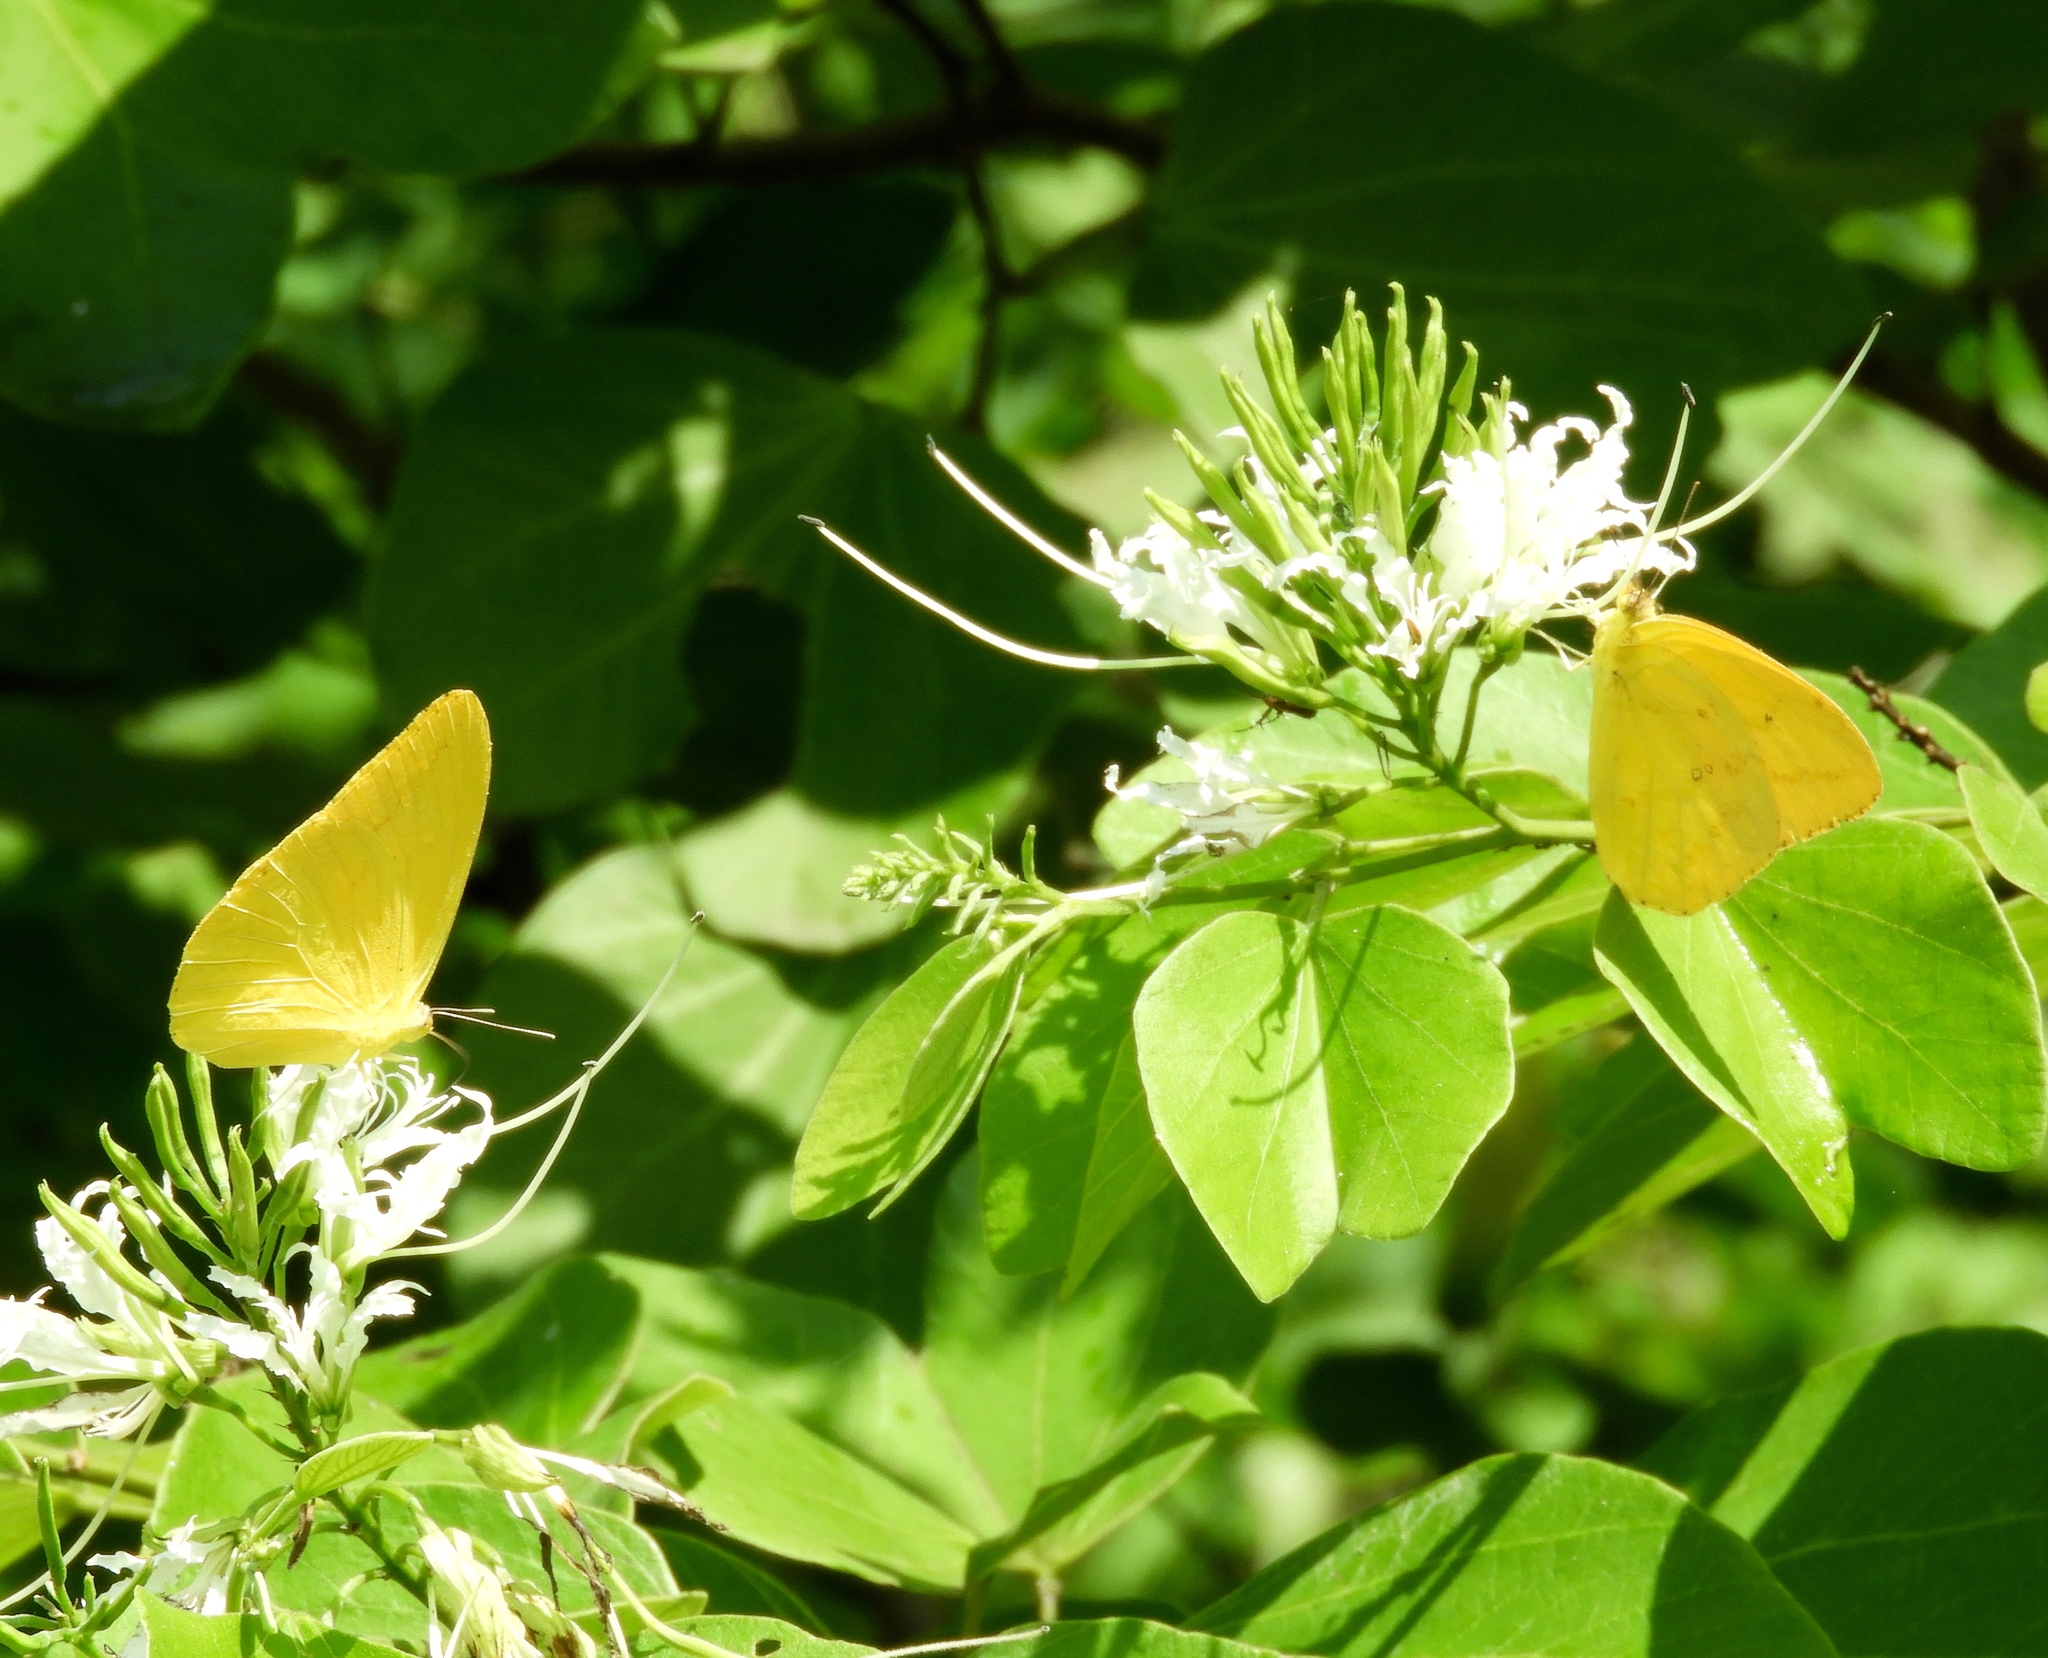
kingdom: Animalia
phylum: Arthropoda
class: Insecta
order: Lepidoptera
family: Pieridae
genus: Phoebis
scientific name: Phoebis agarithe
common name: Large orange sulphur
